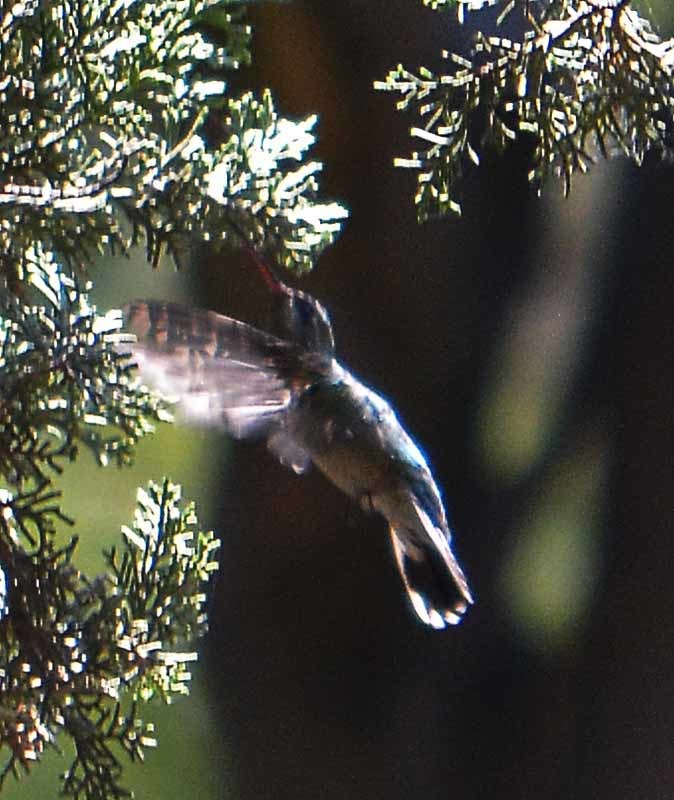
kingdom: Animalia
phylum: Chordata
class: Aves
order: Apodiformes
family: Trochilidae
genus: Cynanthus
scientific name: Cynanthus latirostris
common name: Broad-billed hummingbird
